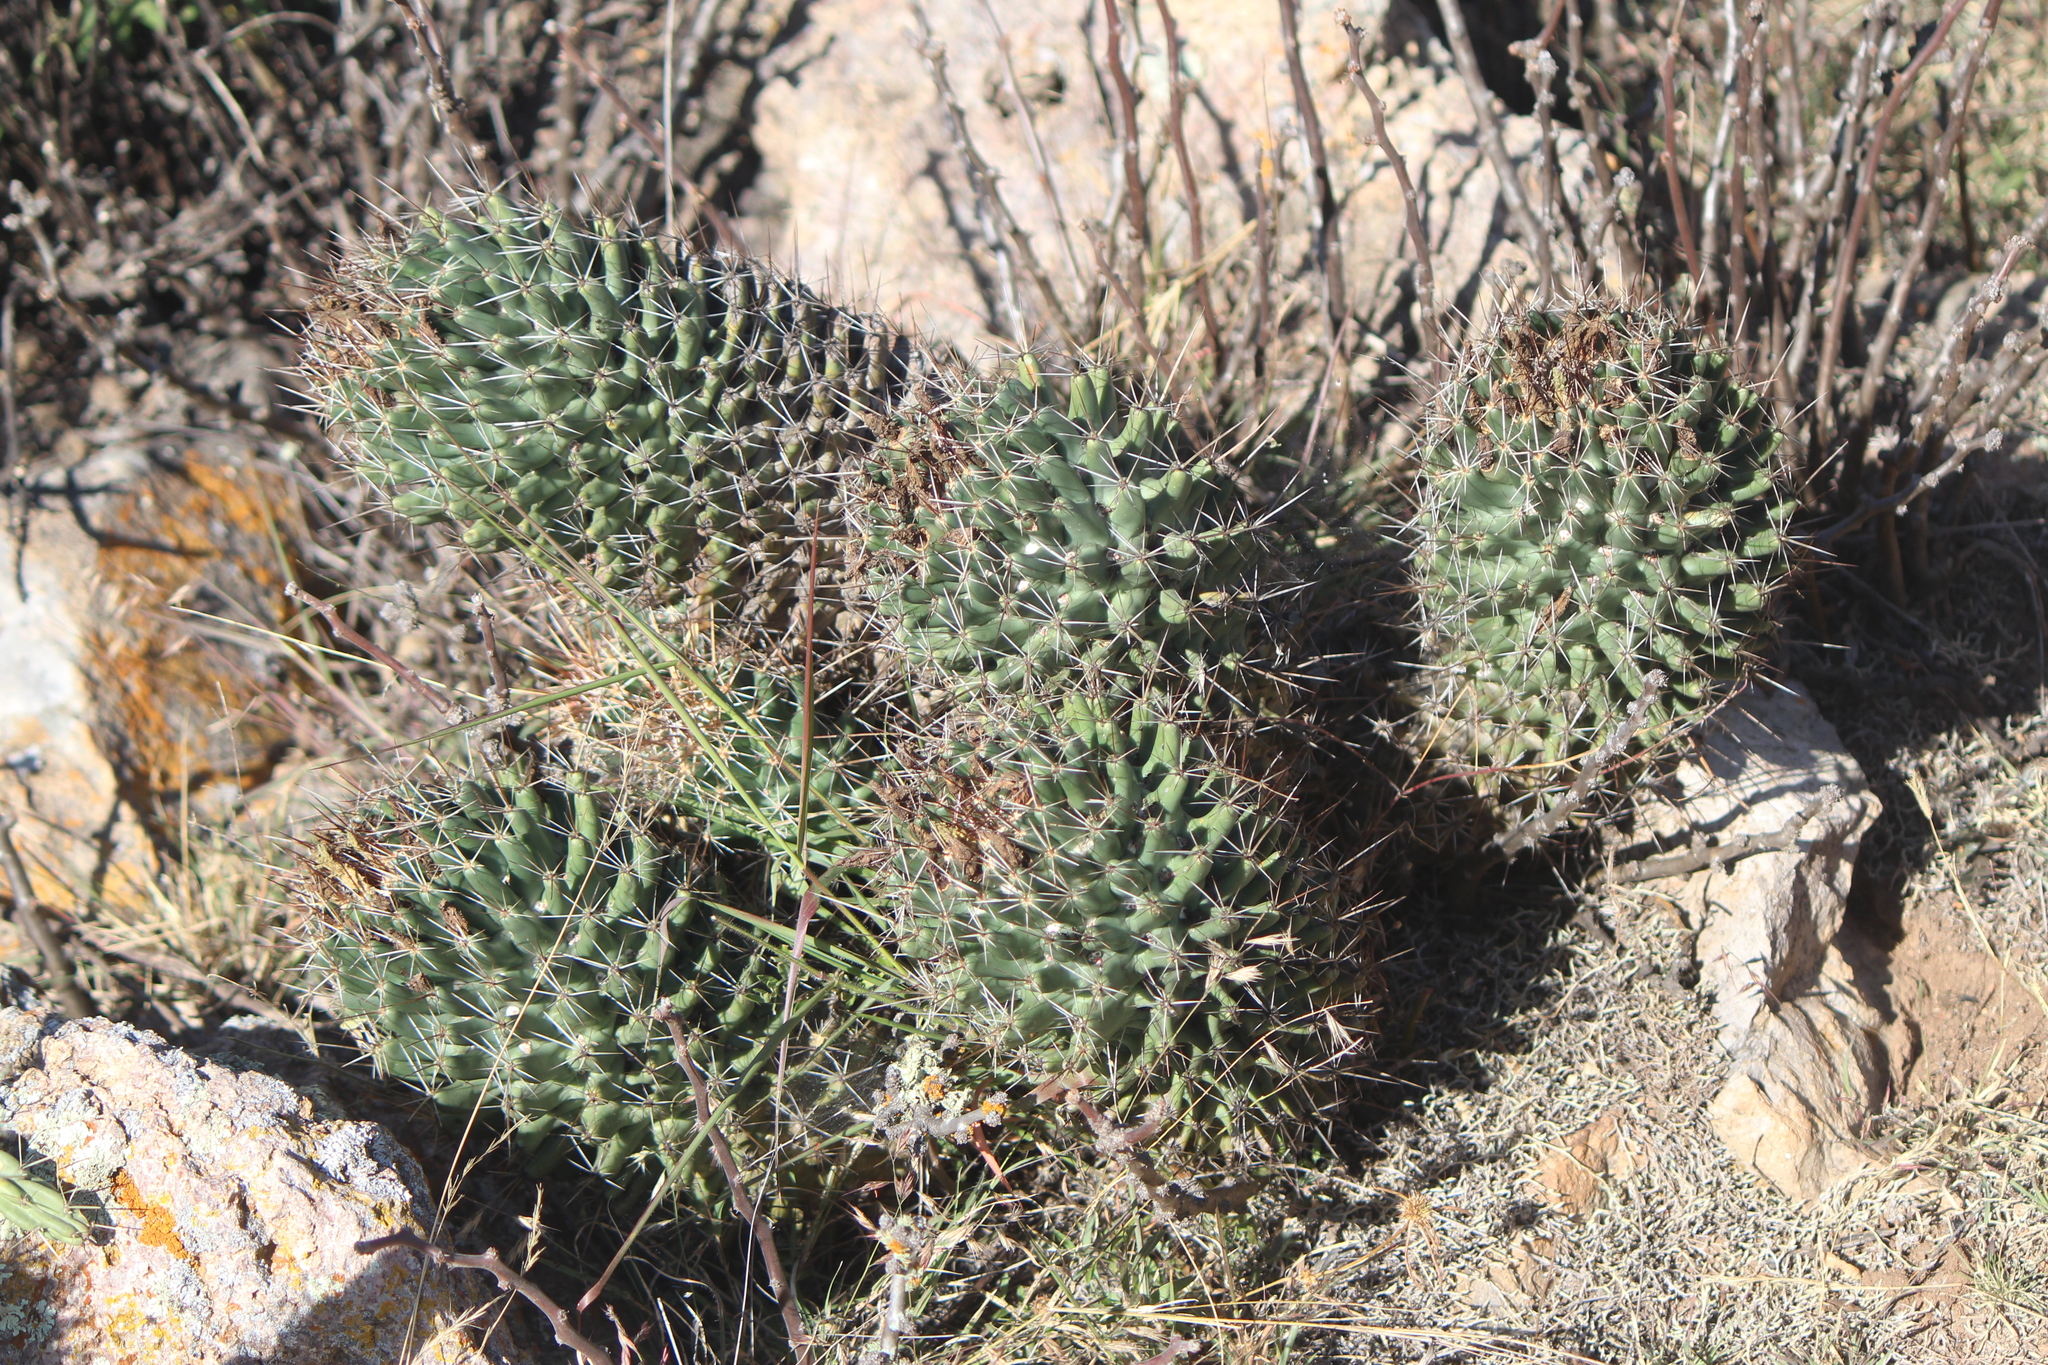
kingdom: Plantae
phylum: Tracheophyta
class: Magnoliopsida
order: Caryophyllales
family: Cactaceae
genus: Coryphantha
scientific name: Coryphantha octacantha
